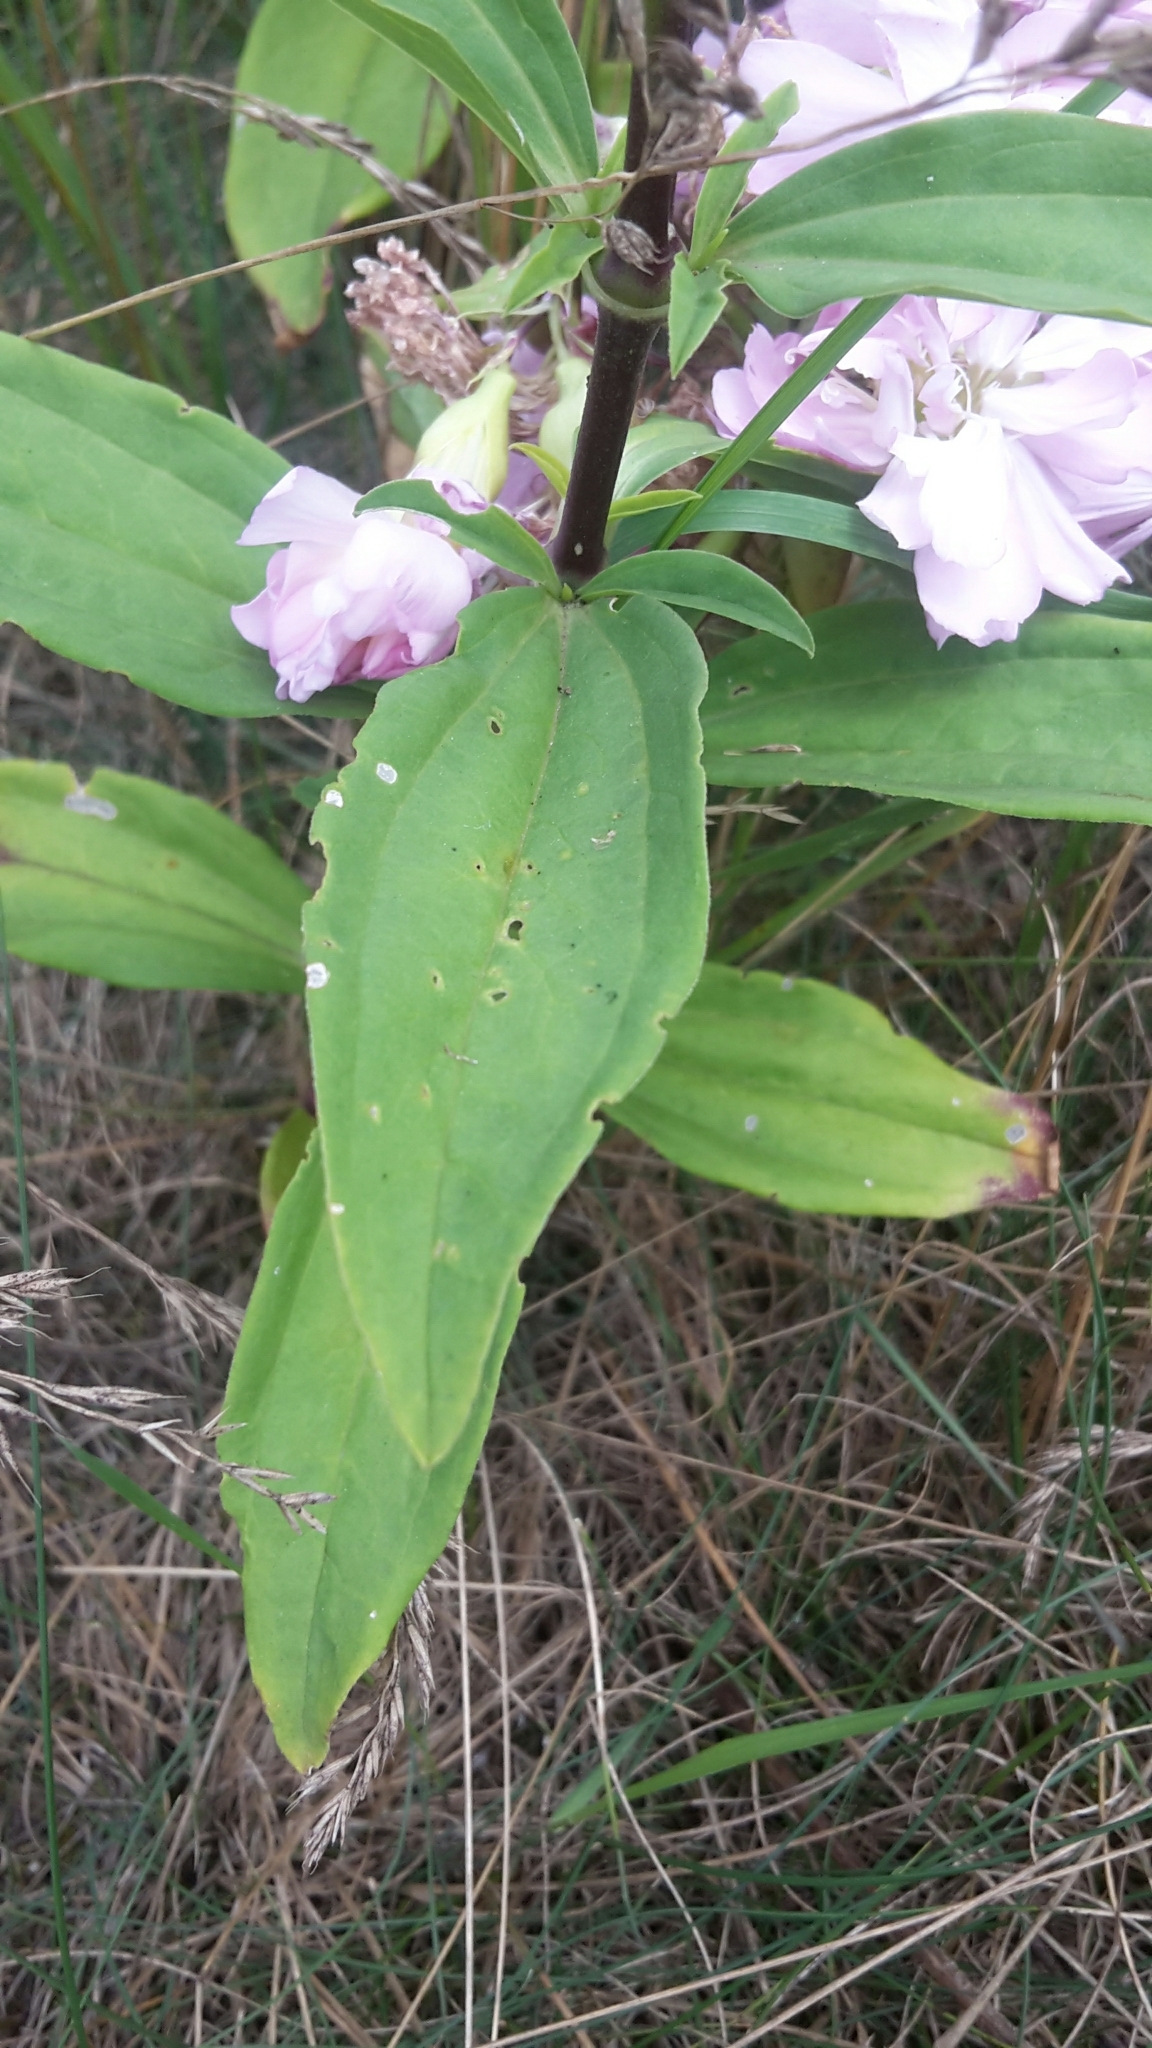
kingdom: Plantae
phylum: Tracheophyta
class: Magnoliopsida
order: Caryophyllales
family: Caryophyllaceae
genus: Saponaria
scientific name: Saponaria officinalis
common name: Soapwort
